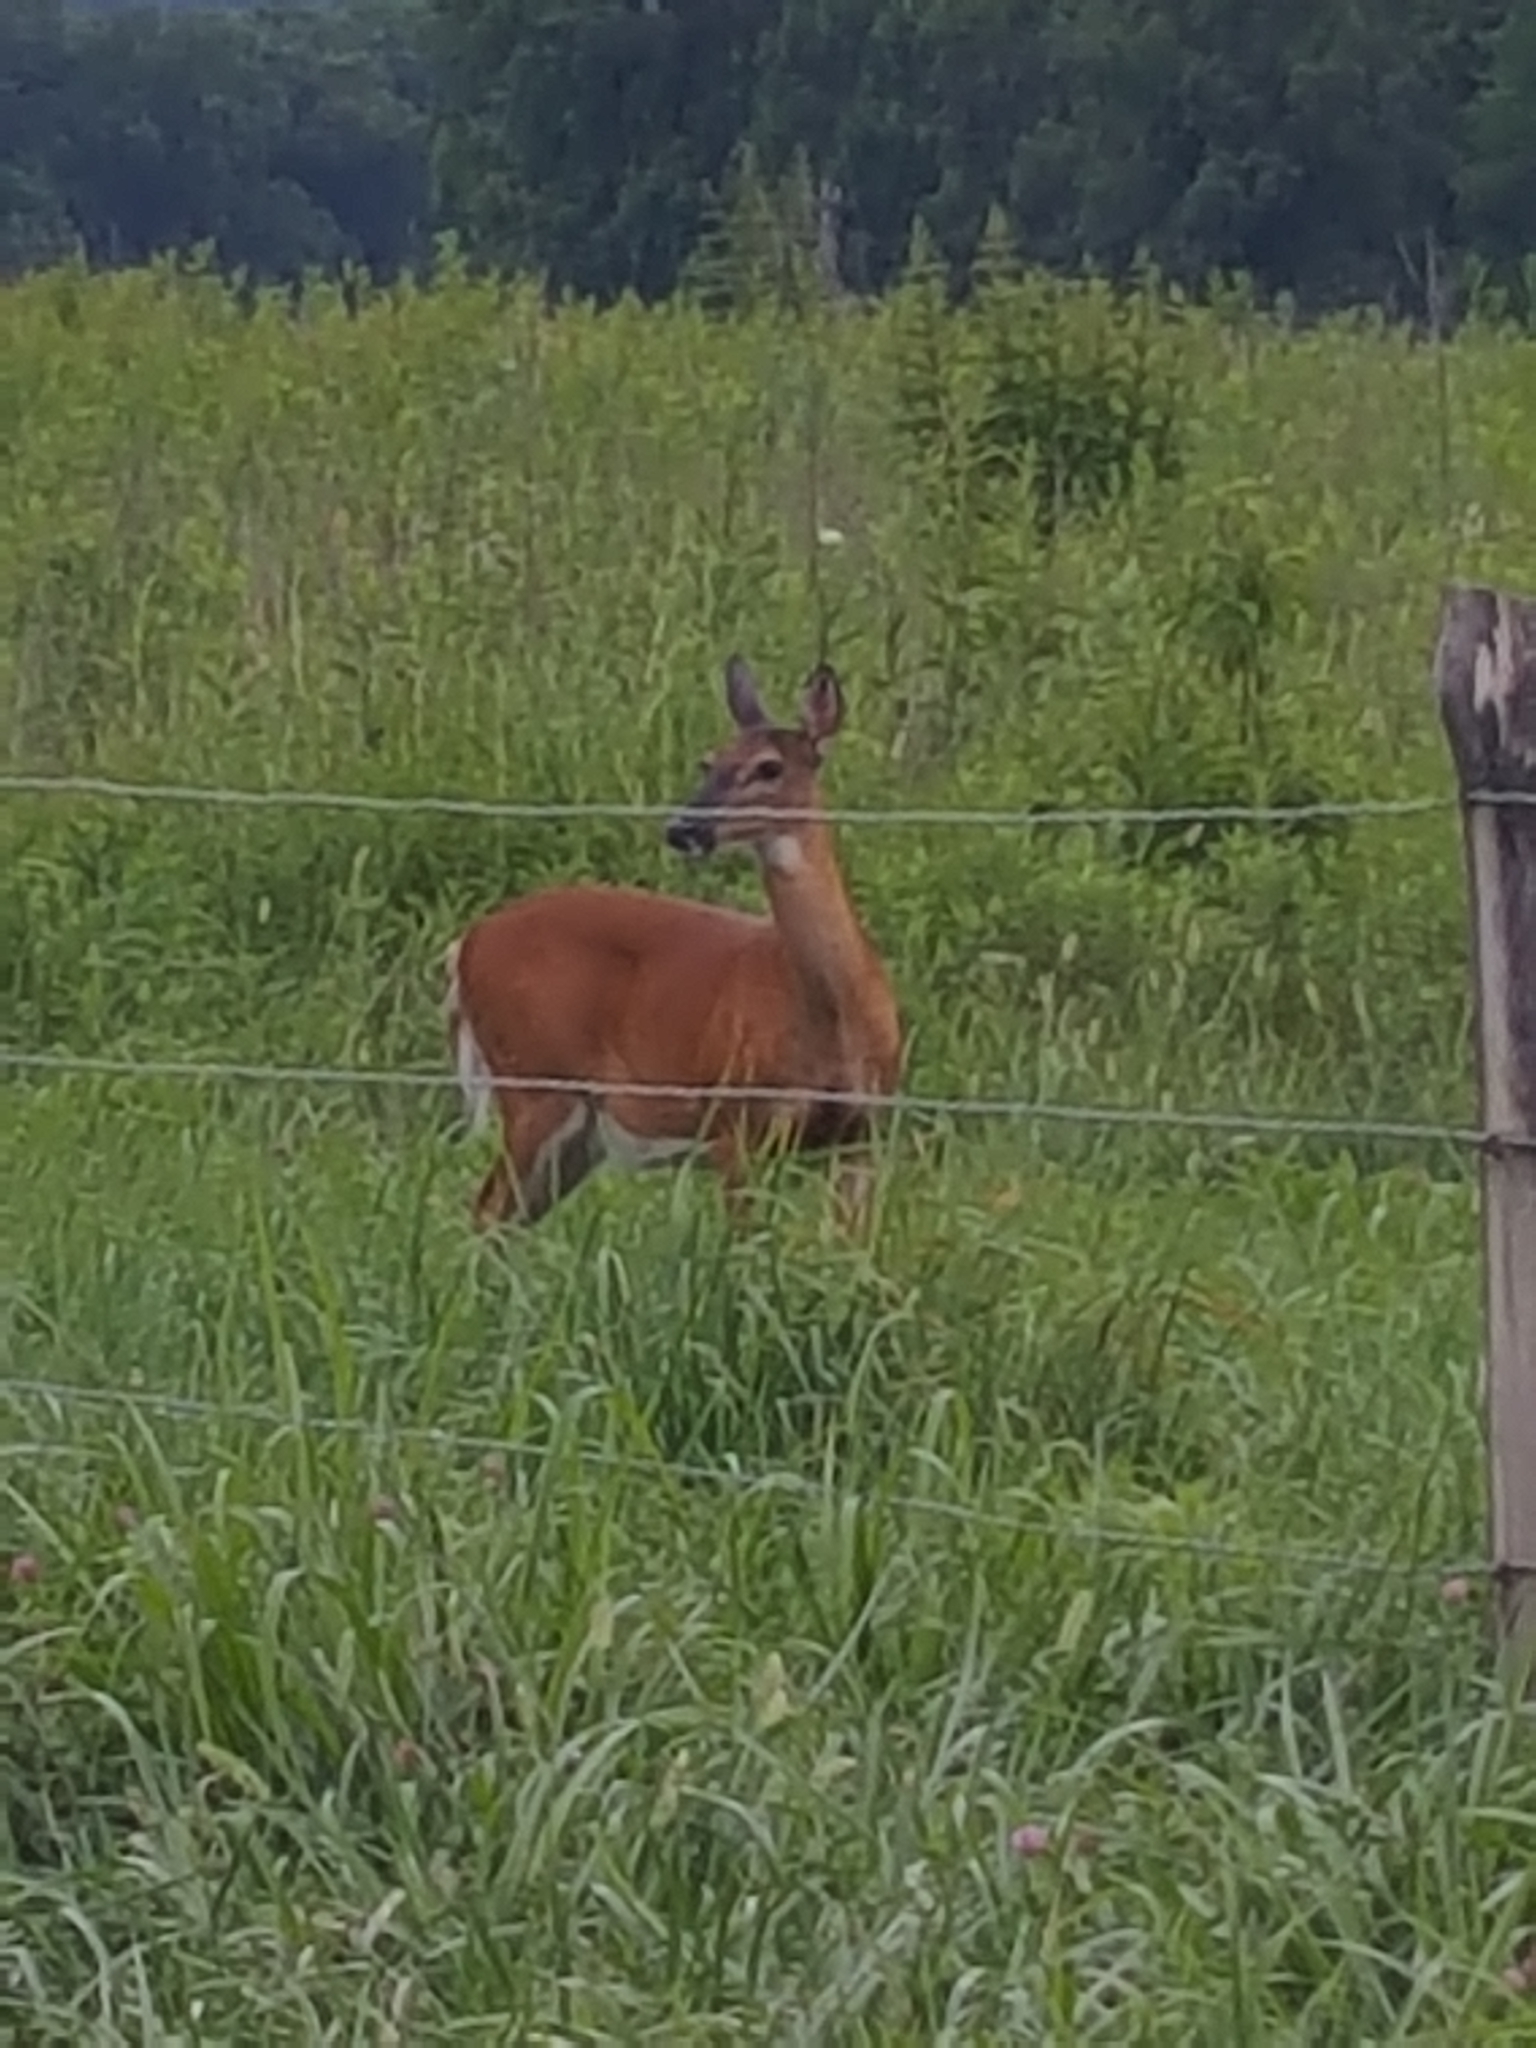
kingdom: Animalia
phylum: Chordata
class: Mammalia
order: Artiodactyla
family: Cervidae
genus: Odocoileus
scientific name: Odocoileus virginianus
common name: White-tailed deer
